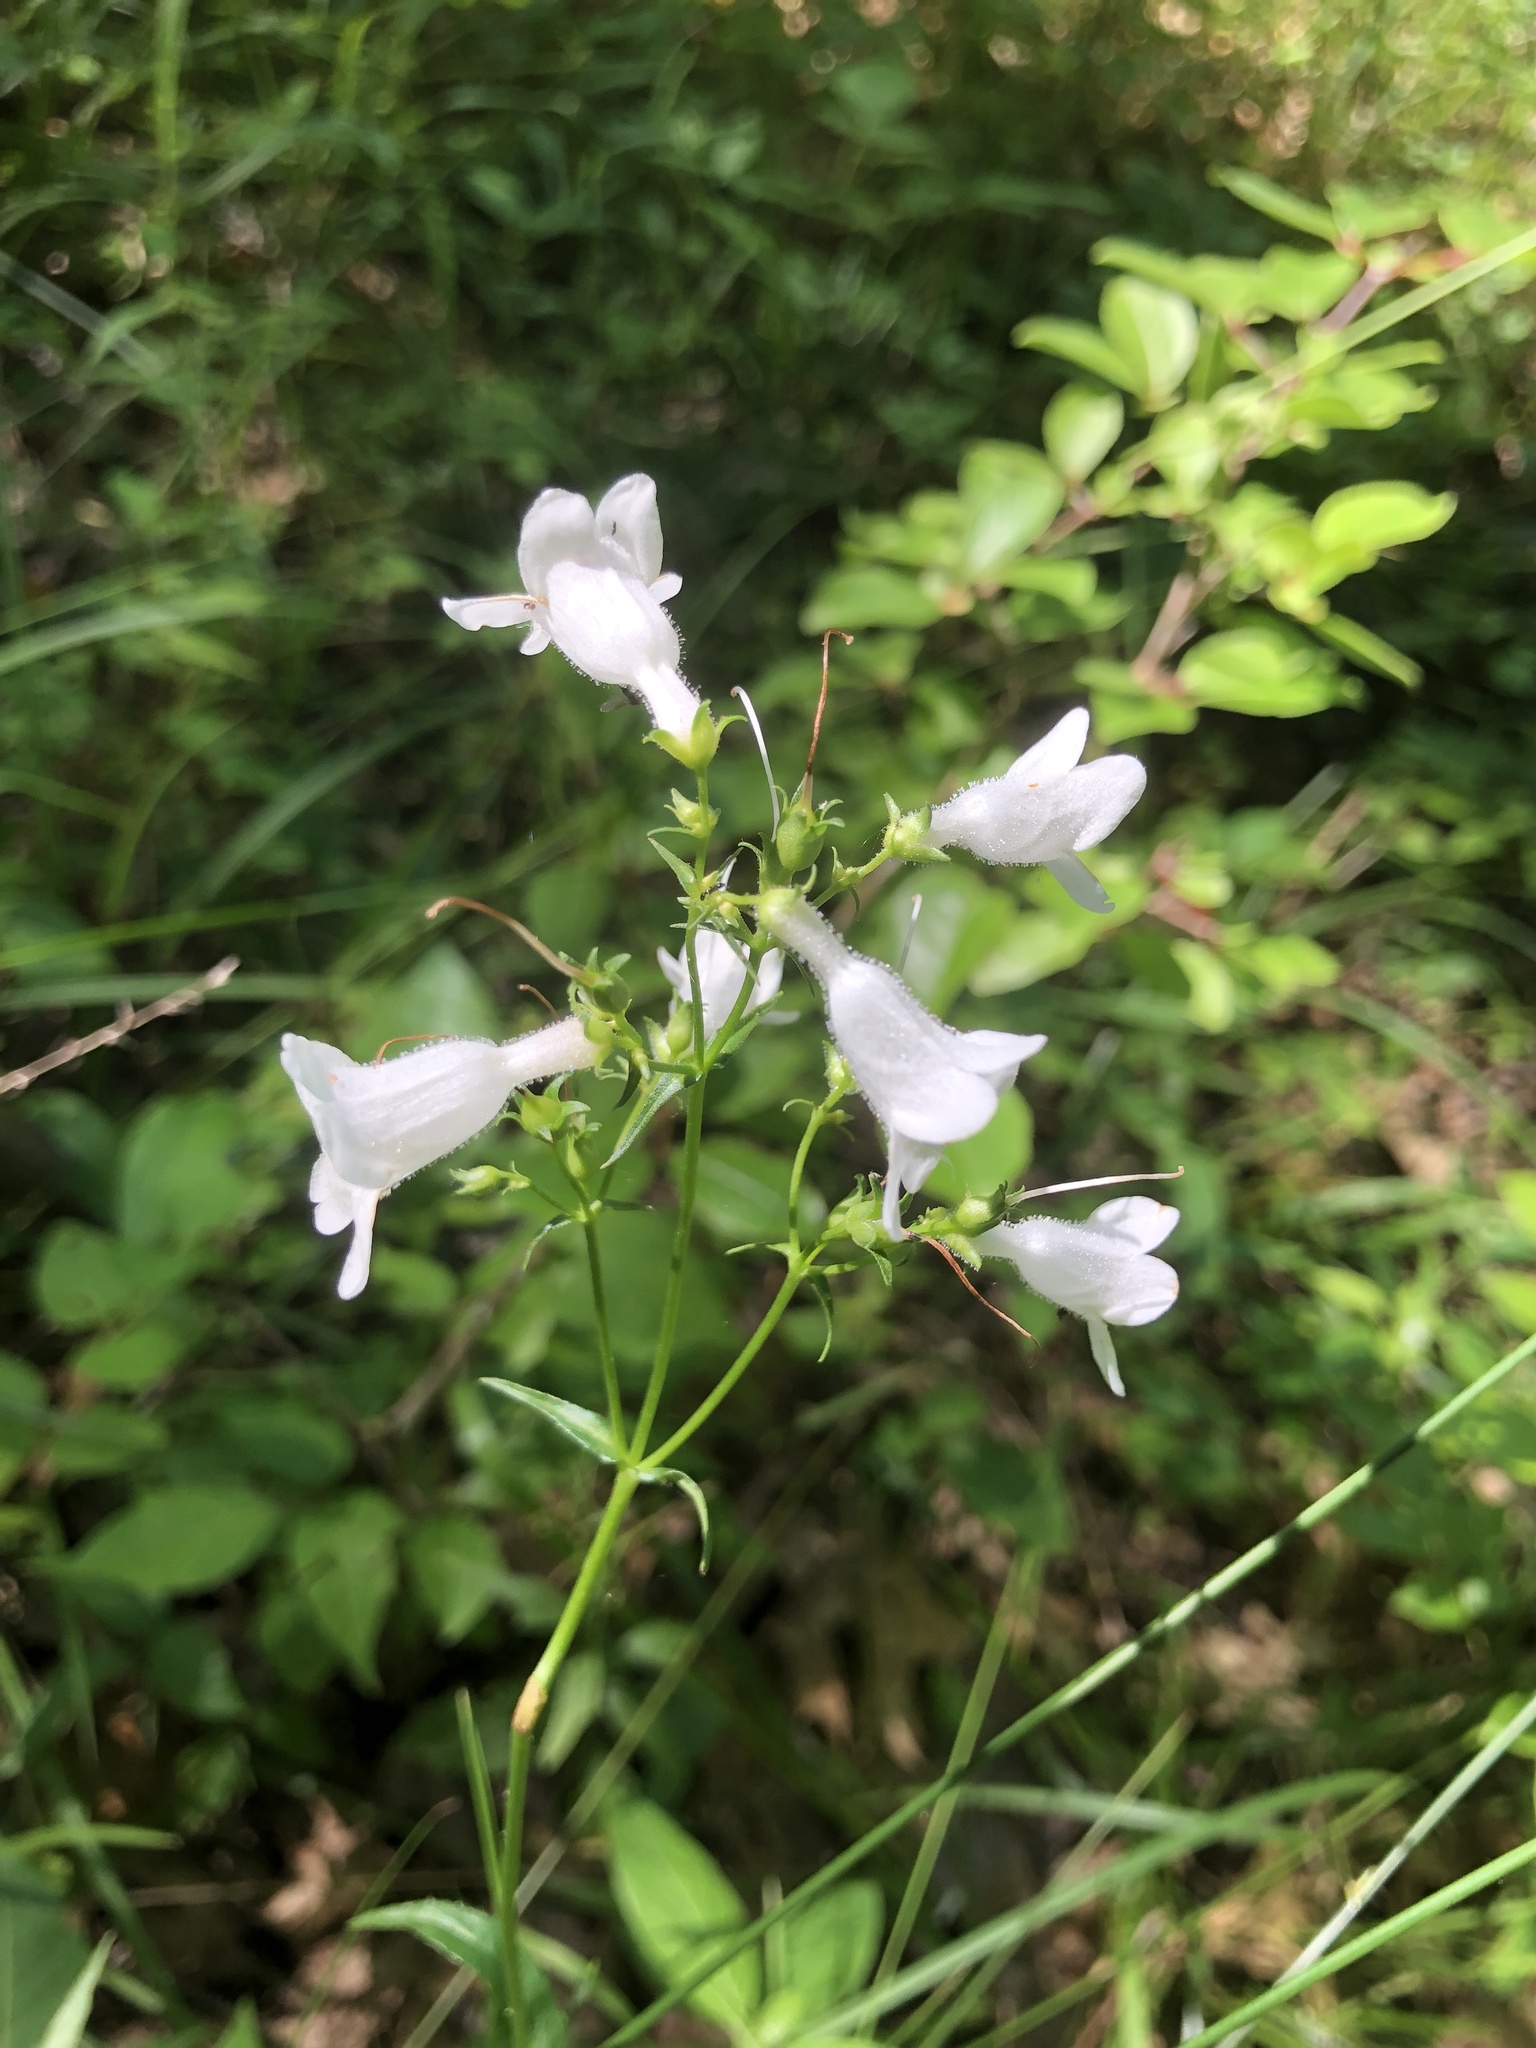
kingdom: Plantae
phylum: Tracheophyta
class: Magnoliopsida
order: Lamiales
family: Plantaginaceae
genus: Penstemon
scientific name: Penstemon digitalis
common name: Foxglove beardtongue
